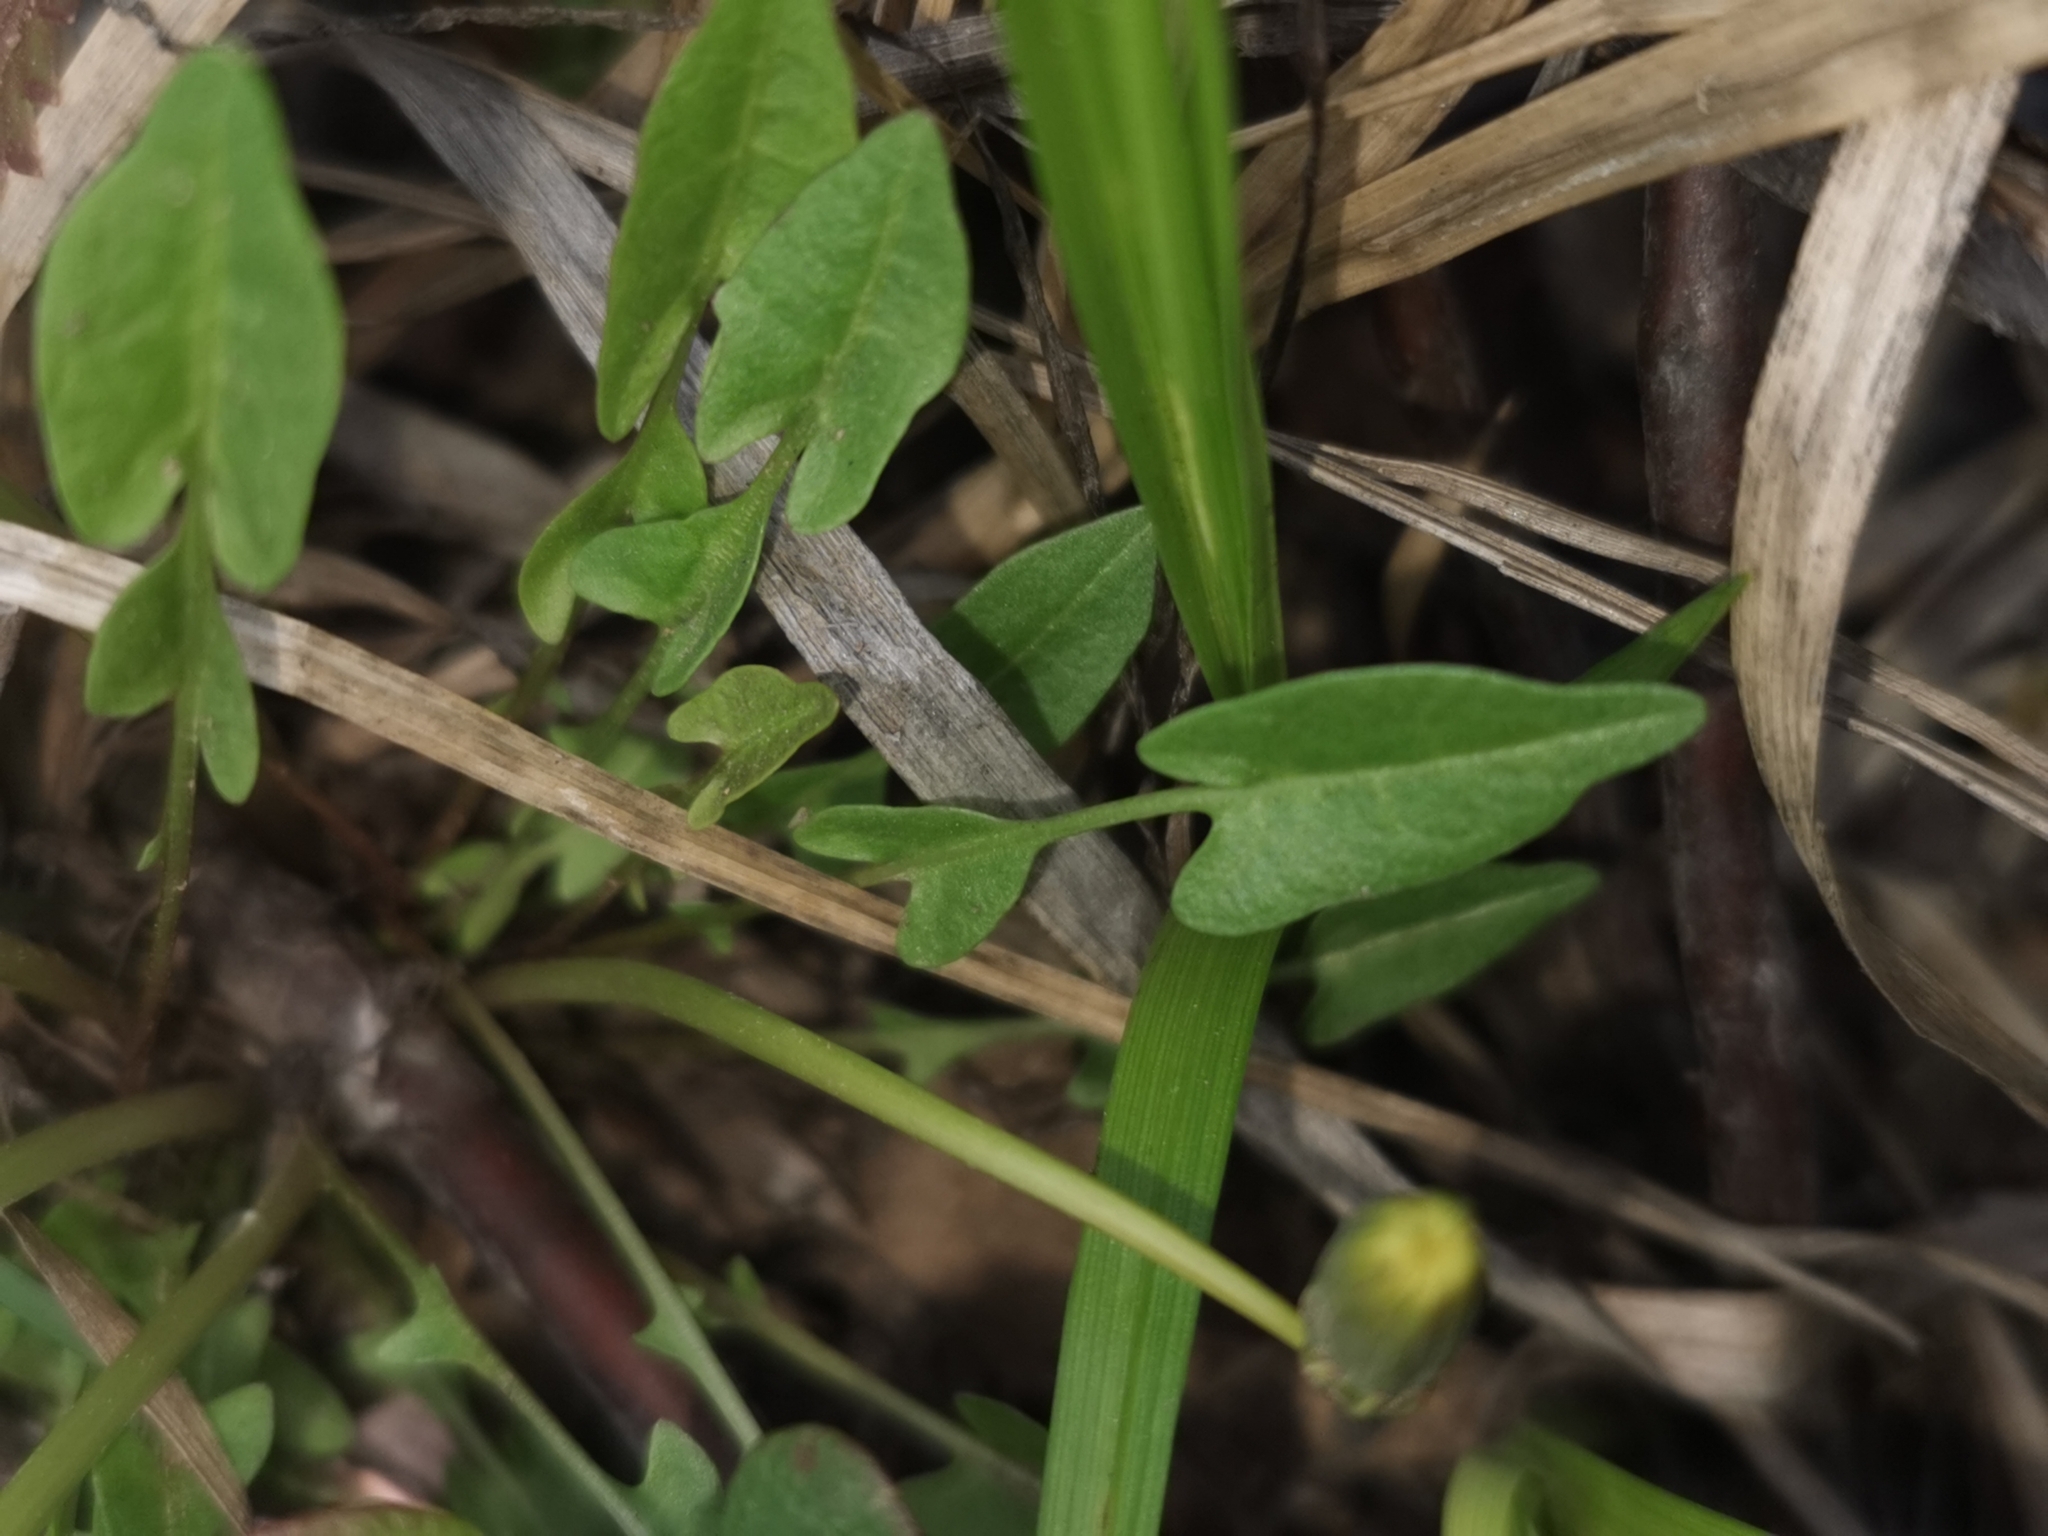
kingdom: Plantae
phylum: Tracheophyta
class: Magnoliopsida
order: Asterales
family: Asteraceae
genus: Taraxacum
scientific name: Taraxacum alaskanum
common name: Alaska dandelion
